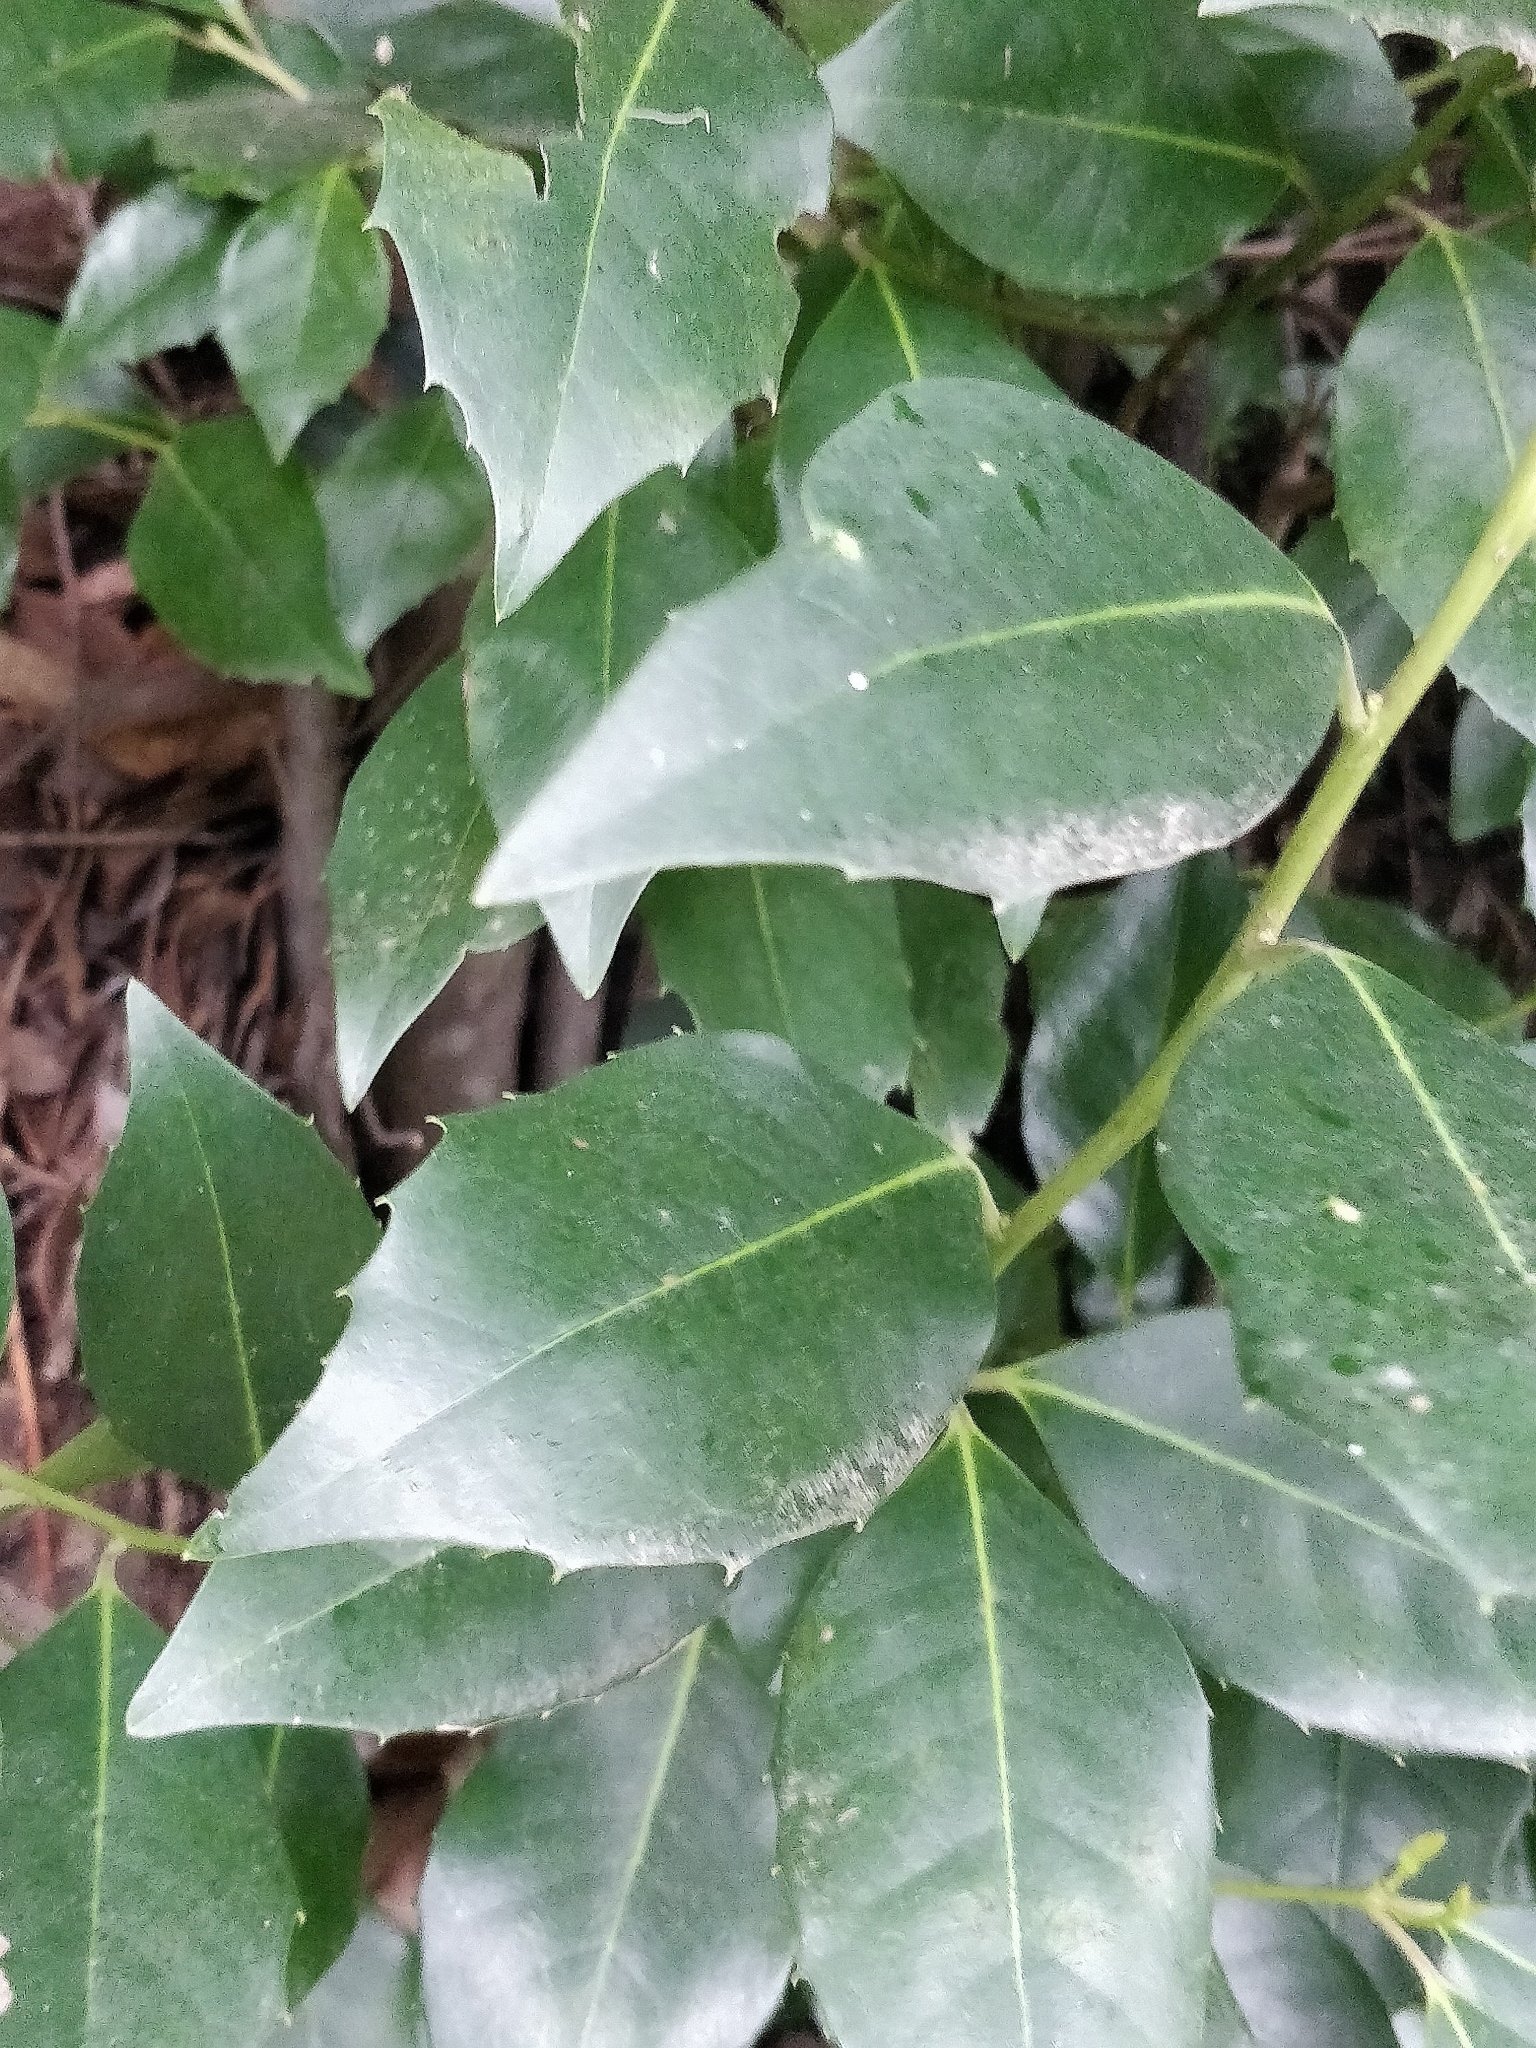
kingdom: Plantae
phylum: Tracheophyta
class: Magnoliopsida
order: Aquifoliales
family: Aquifoliaceae
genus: Ilex
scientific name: Ilex canariensis
